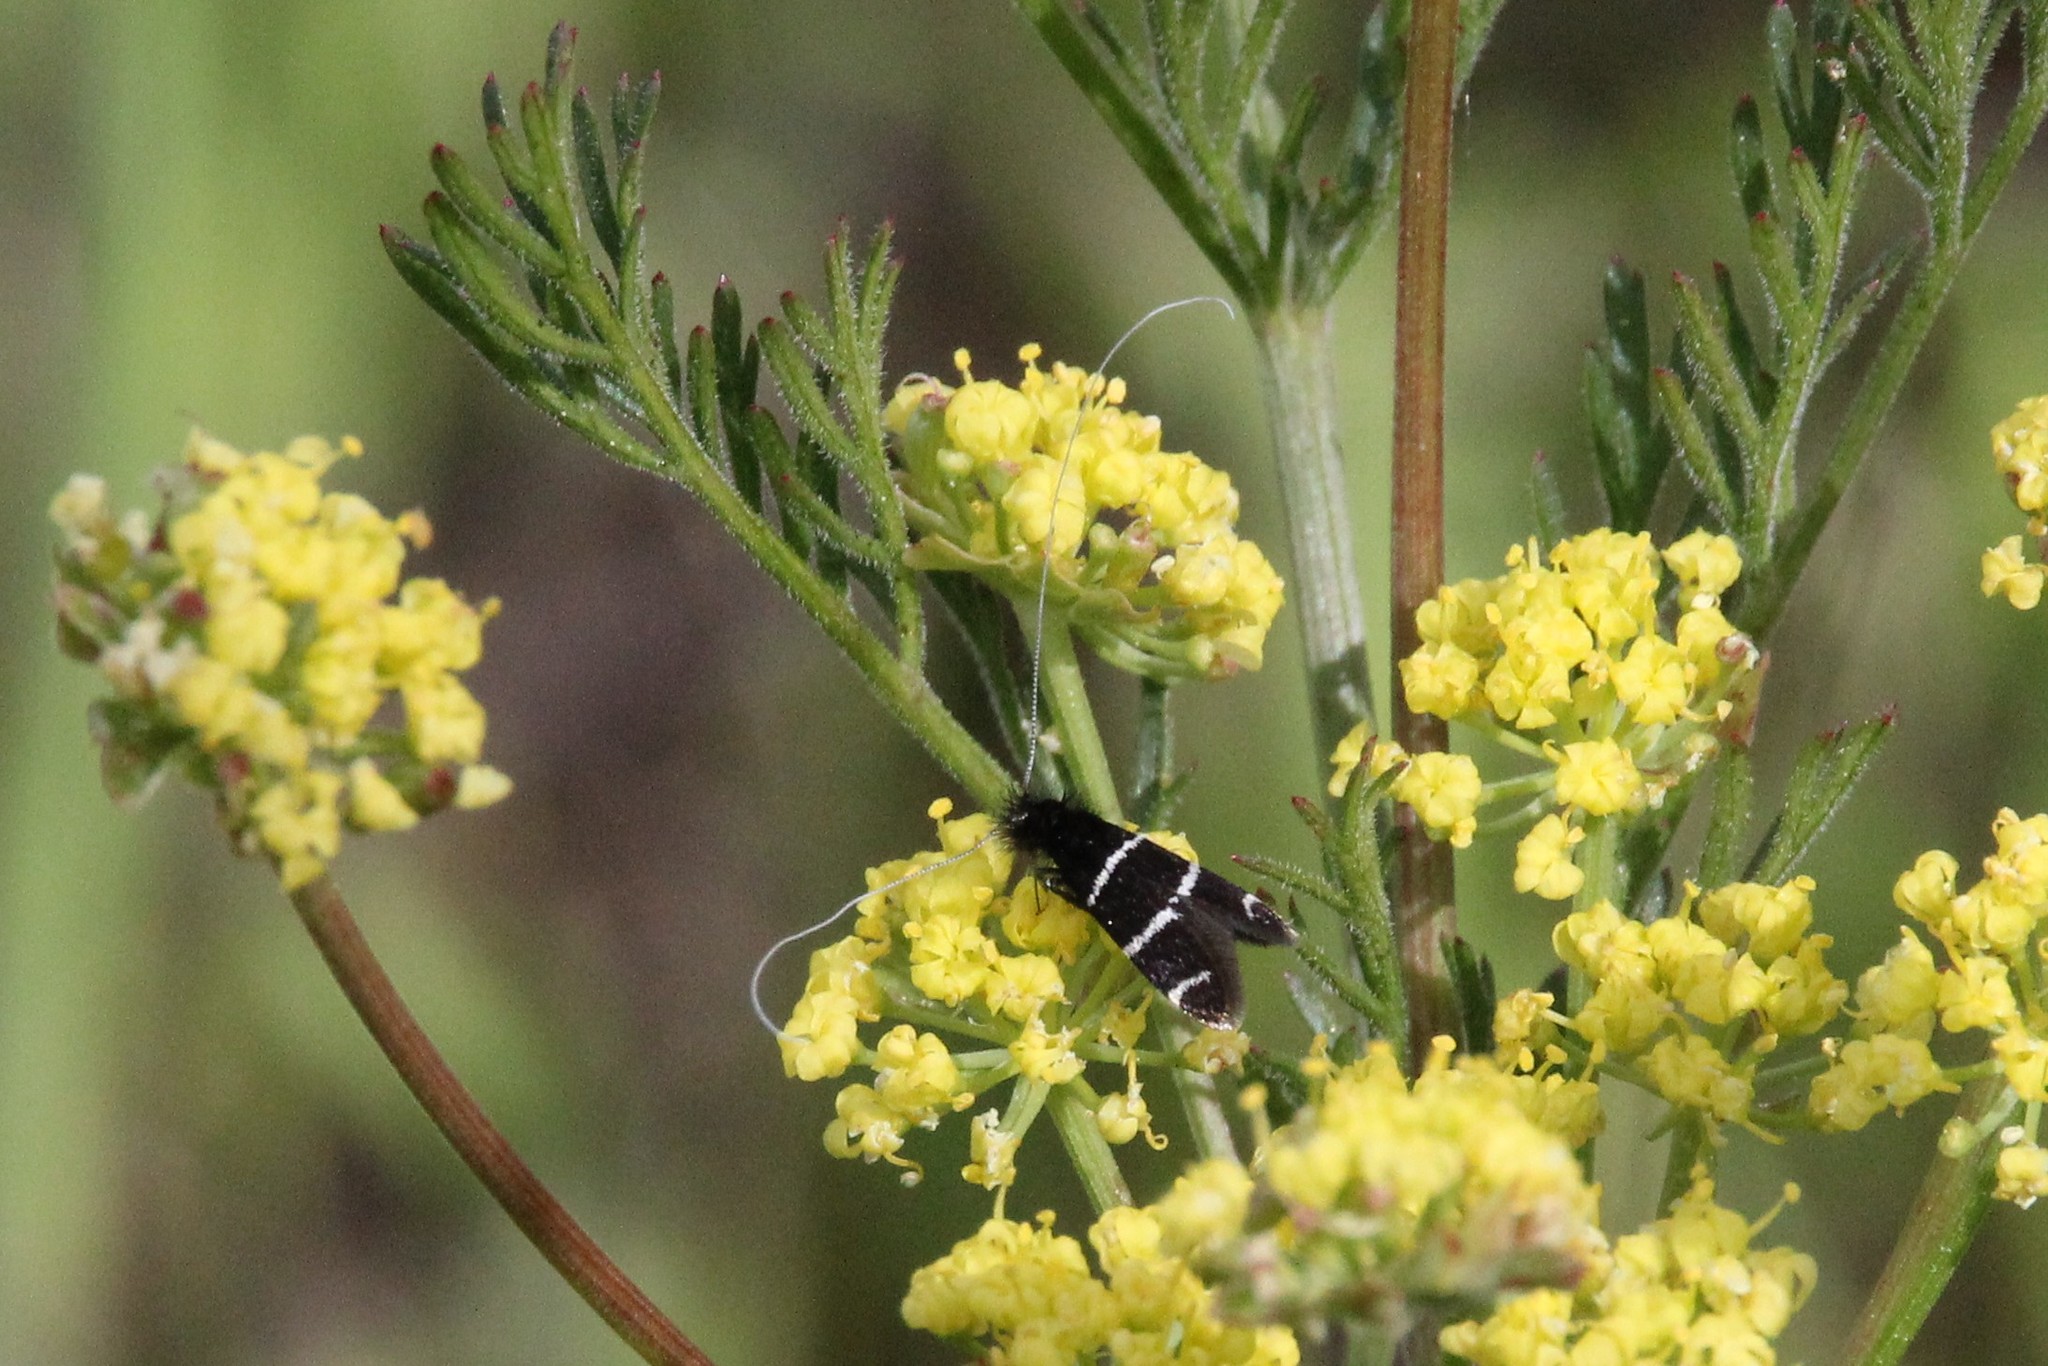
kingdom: Animalia
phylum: Arthropoda
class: Insecta
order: Lepidoptera
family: Adelidae
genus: Adela
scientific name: Adela trigrapha
